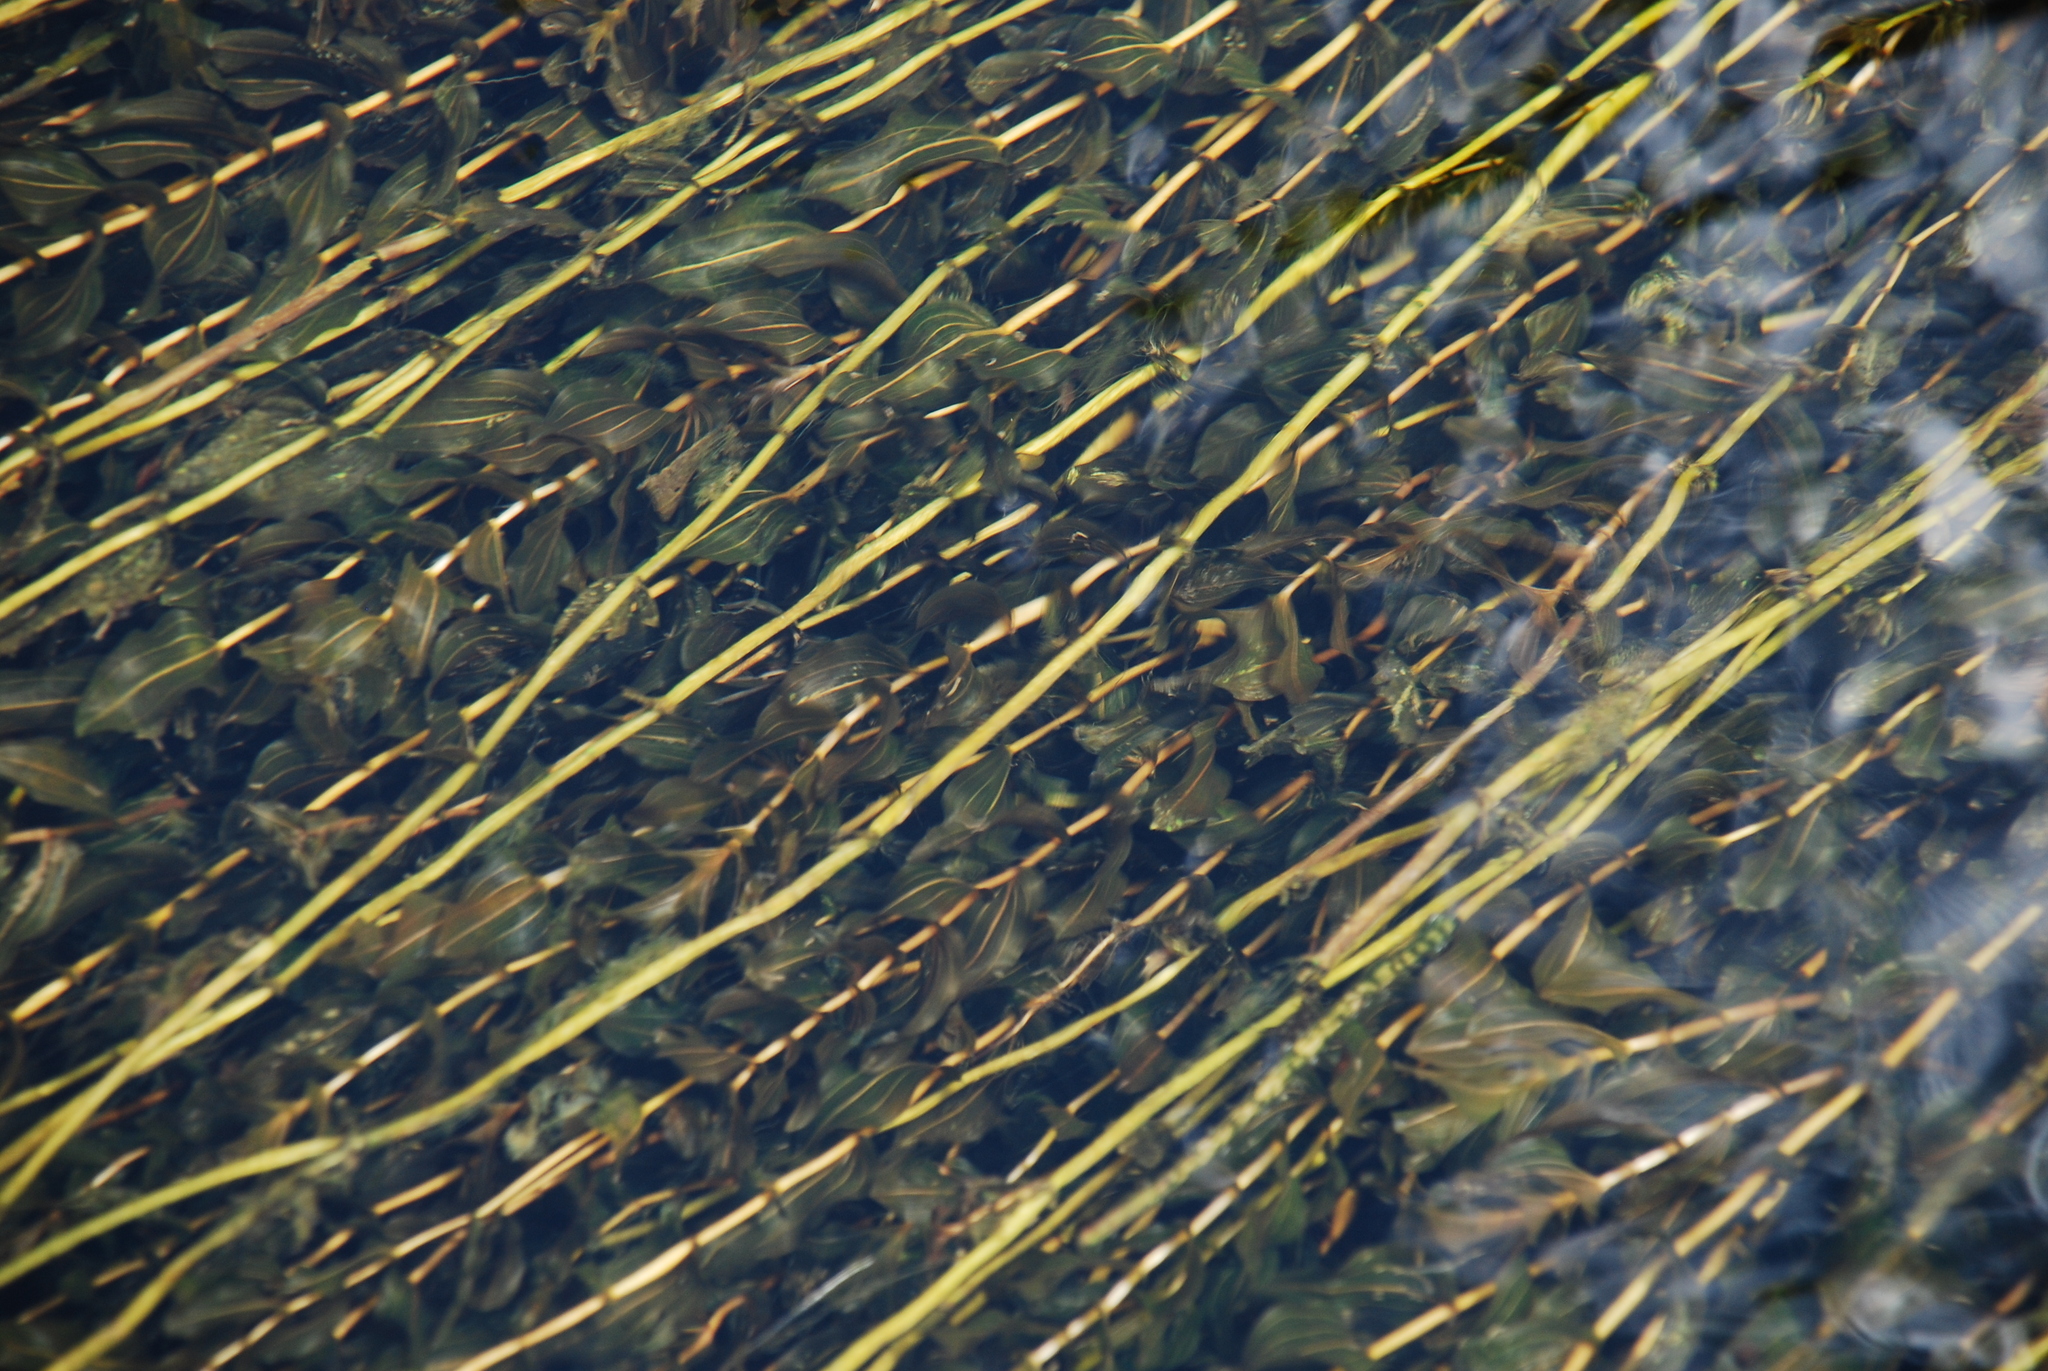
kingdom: Plantae
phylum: Tracheophyta
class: Liliopsida
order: Alismatales
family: Potamogetonaceae
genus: Potamogeton
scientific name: Potamogeton perfoliatus
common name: Perfoliate pondweed
